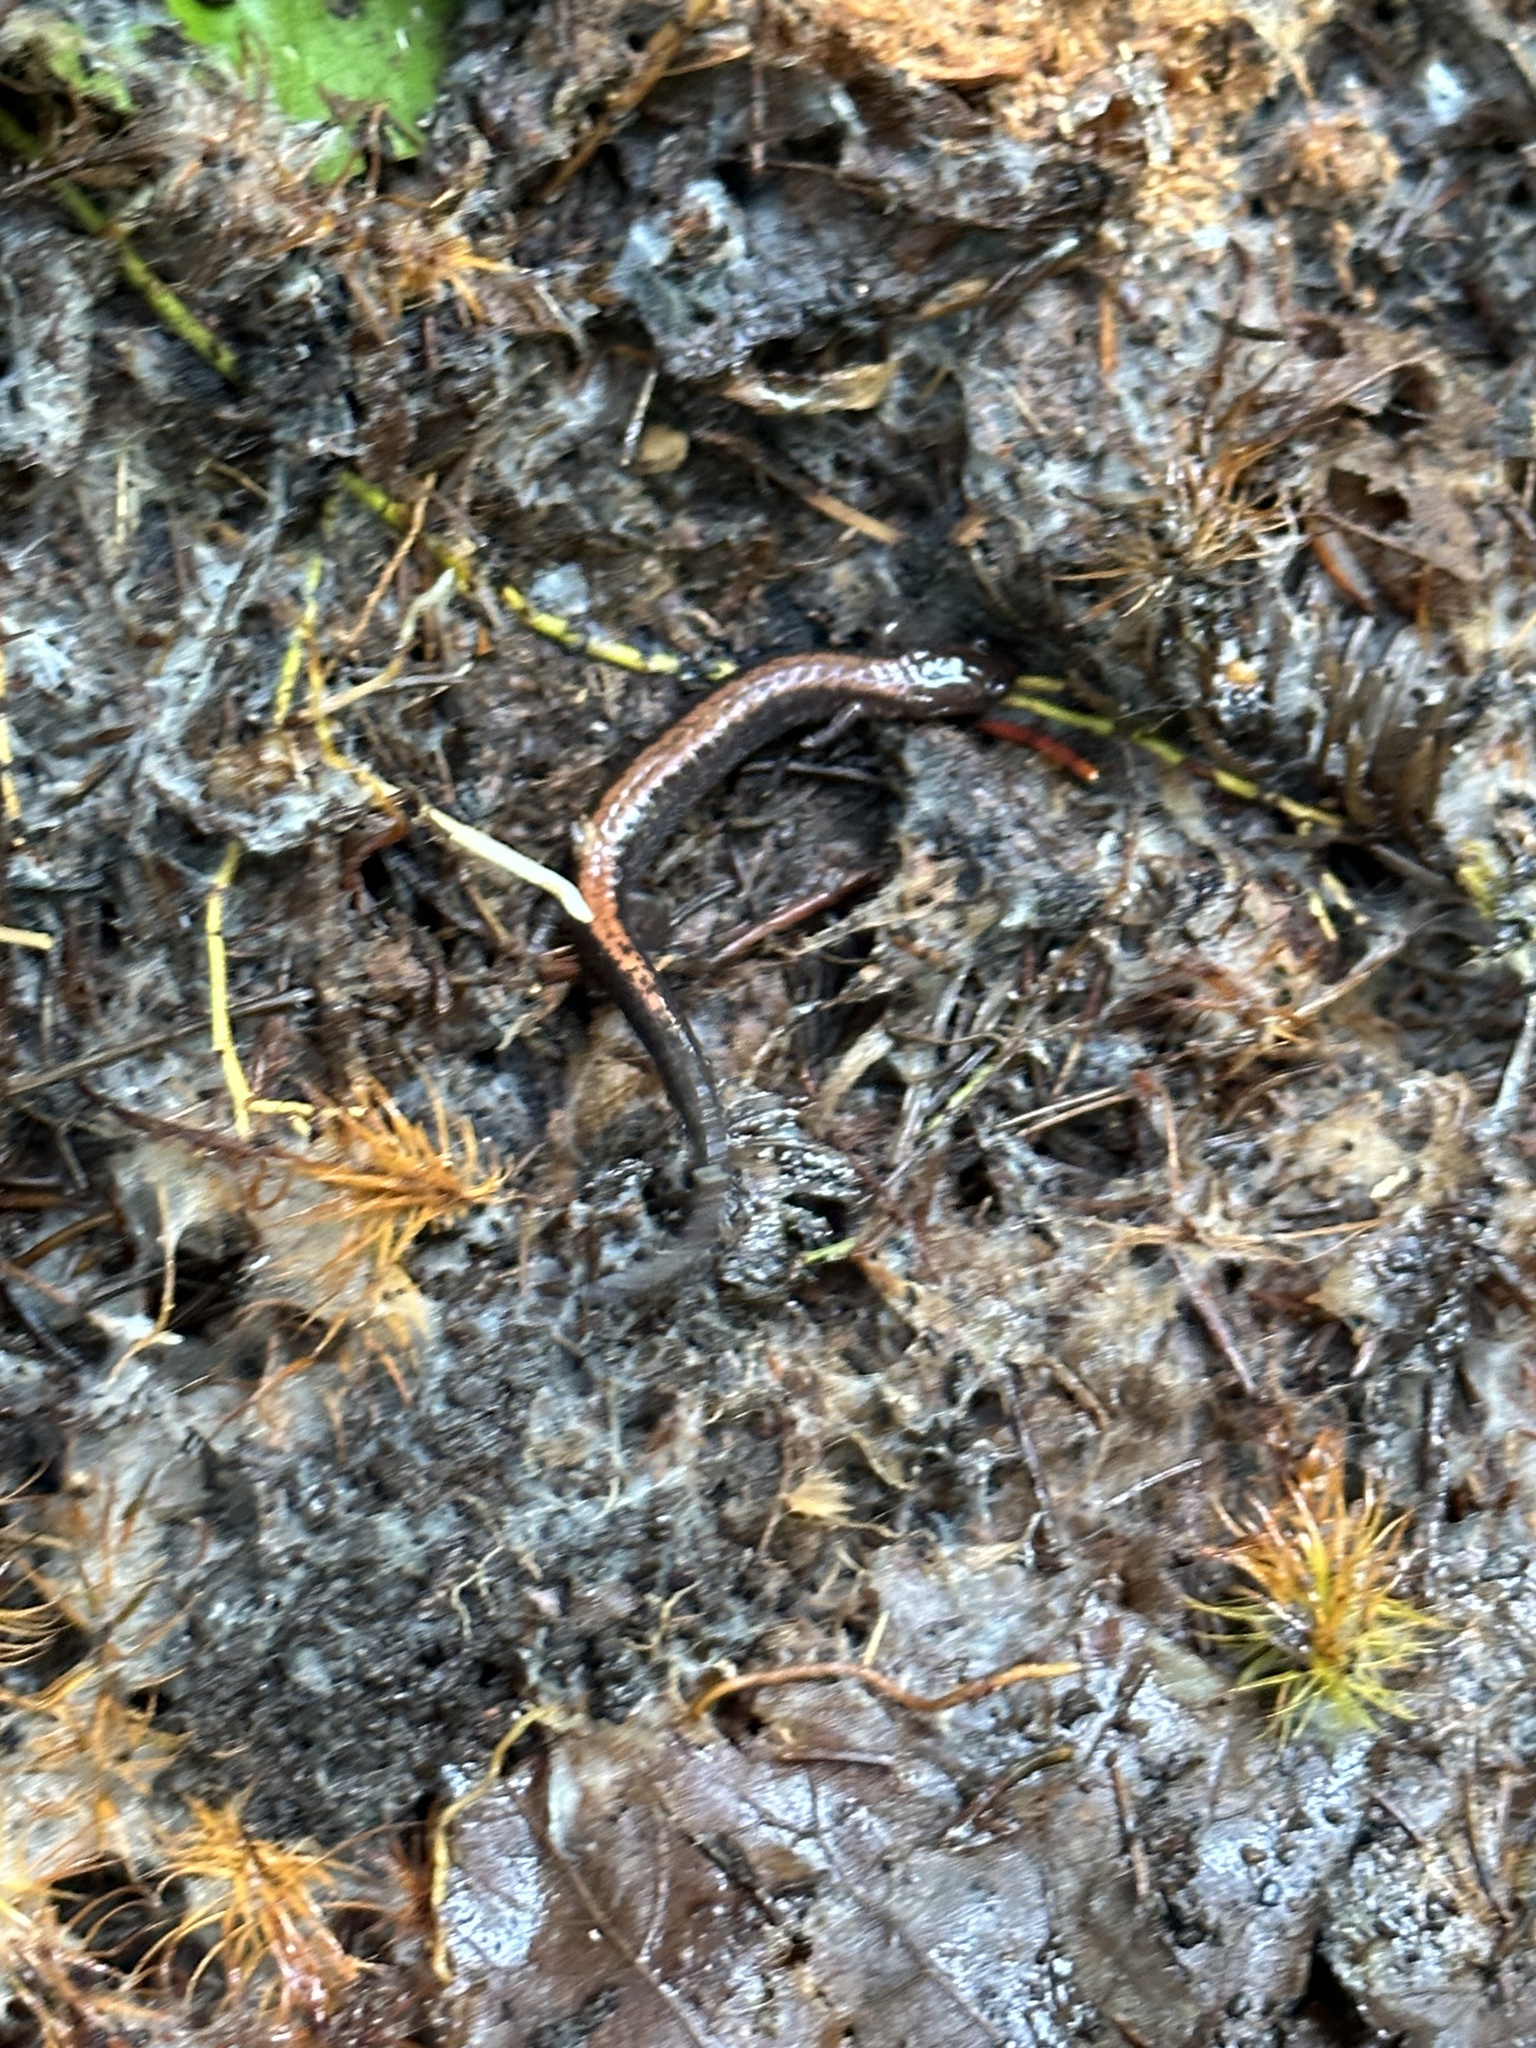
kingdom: Animalia
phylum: Chordata
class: Amphibia
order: Caudata
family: Plethodontidae
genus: Plethodon
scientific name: Plethodon cinereus
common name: Redback salamander
